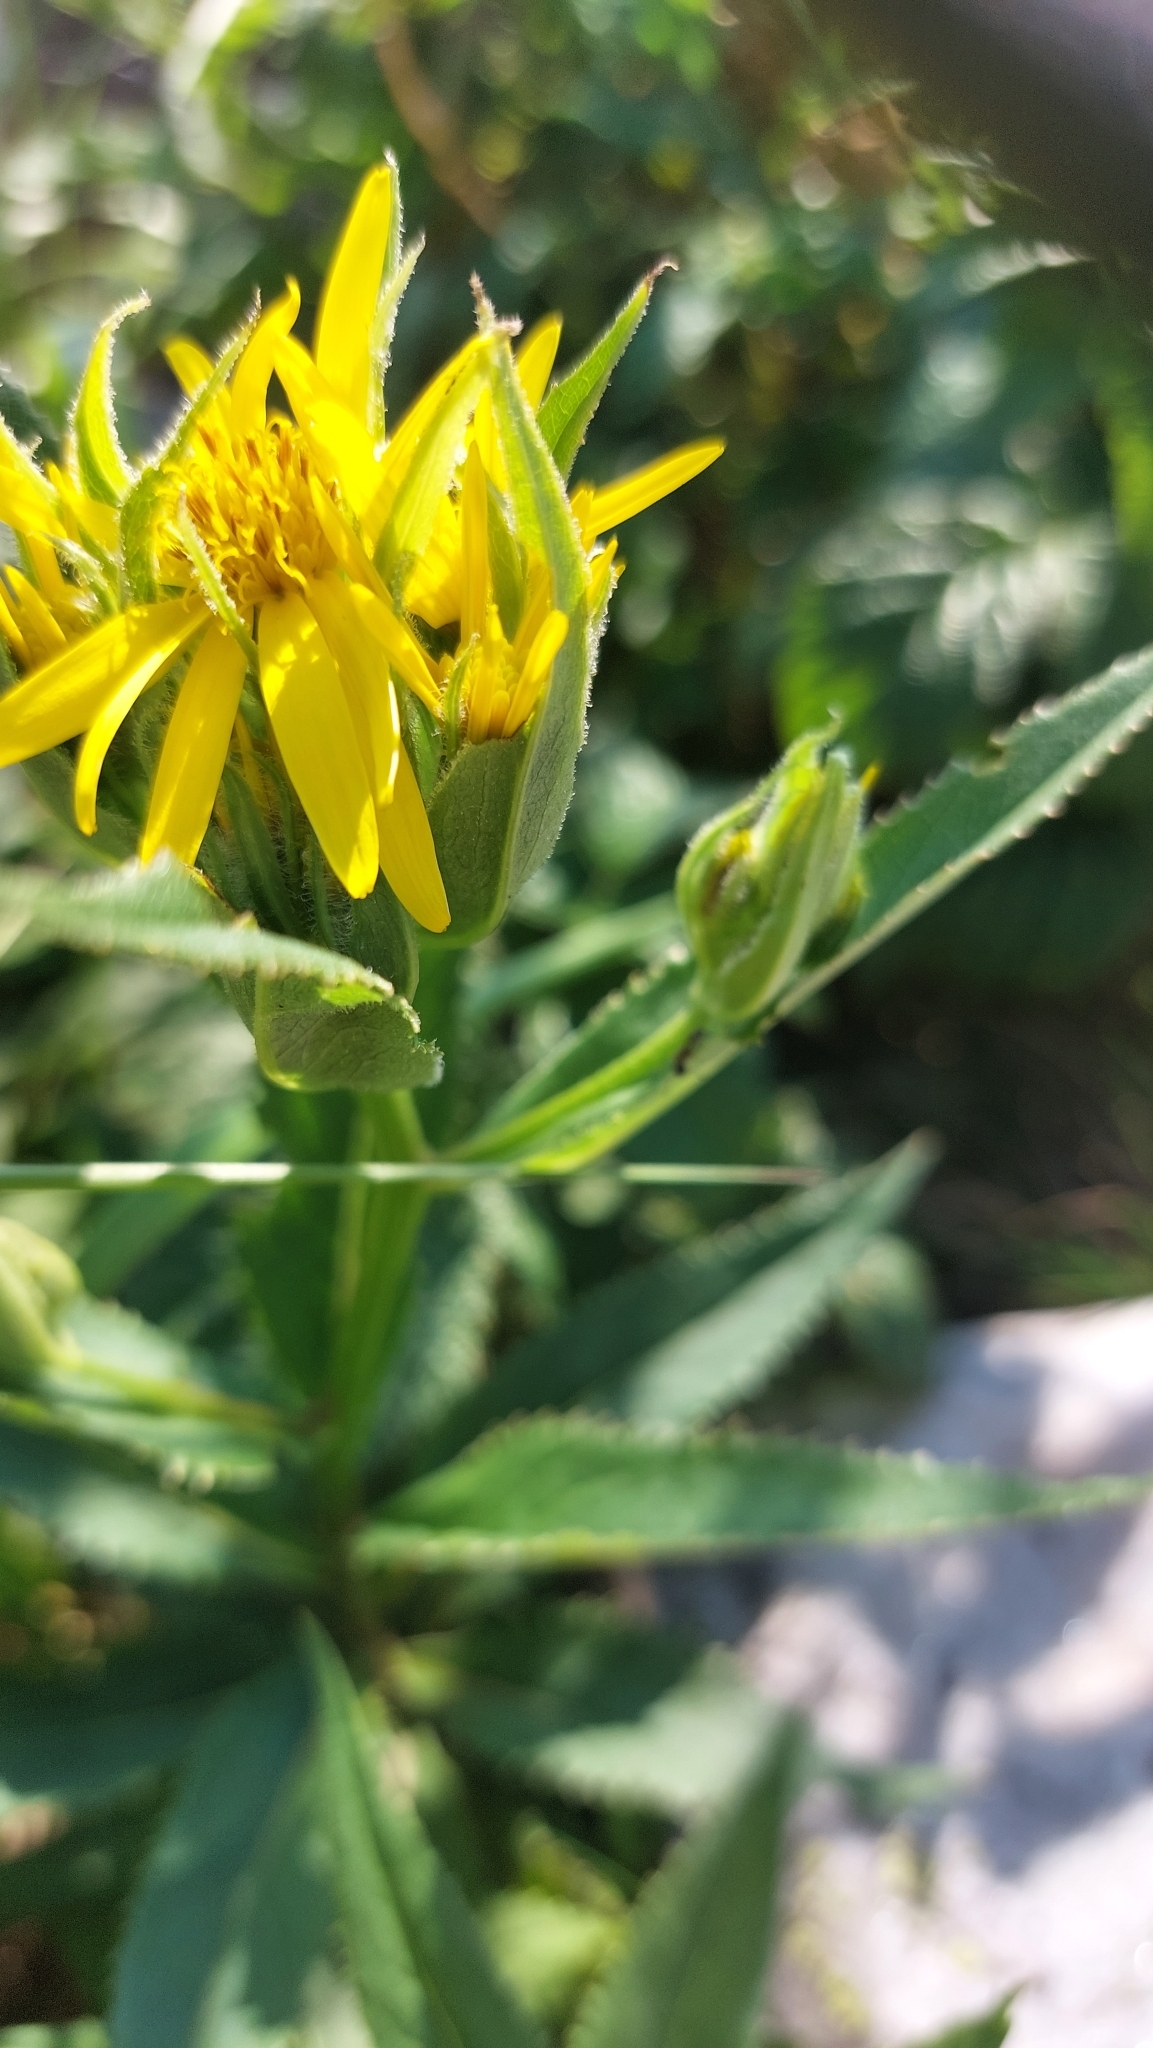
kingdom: Plantae
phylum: Tracheophyta
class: Magnoliopsida
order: Asterales
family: Asteraceae
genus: Senecio
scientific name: Senecio sarracenicus
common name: Broad-leaved ragwort
